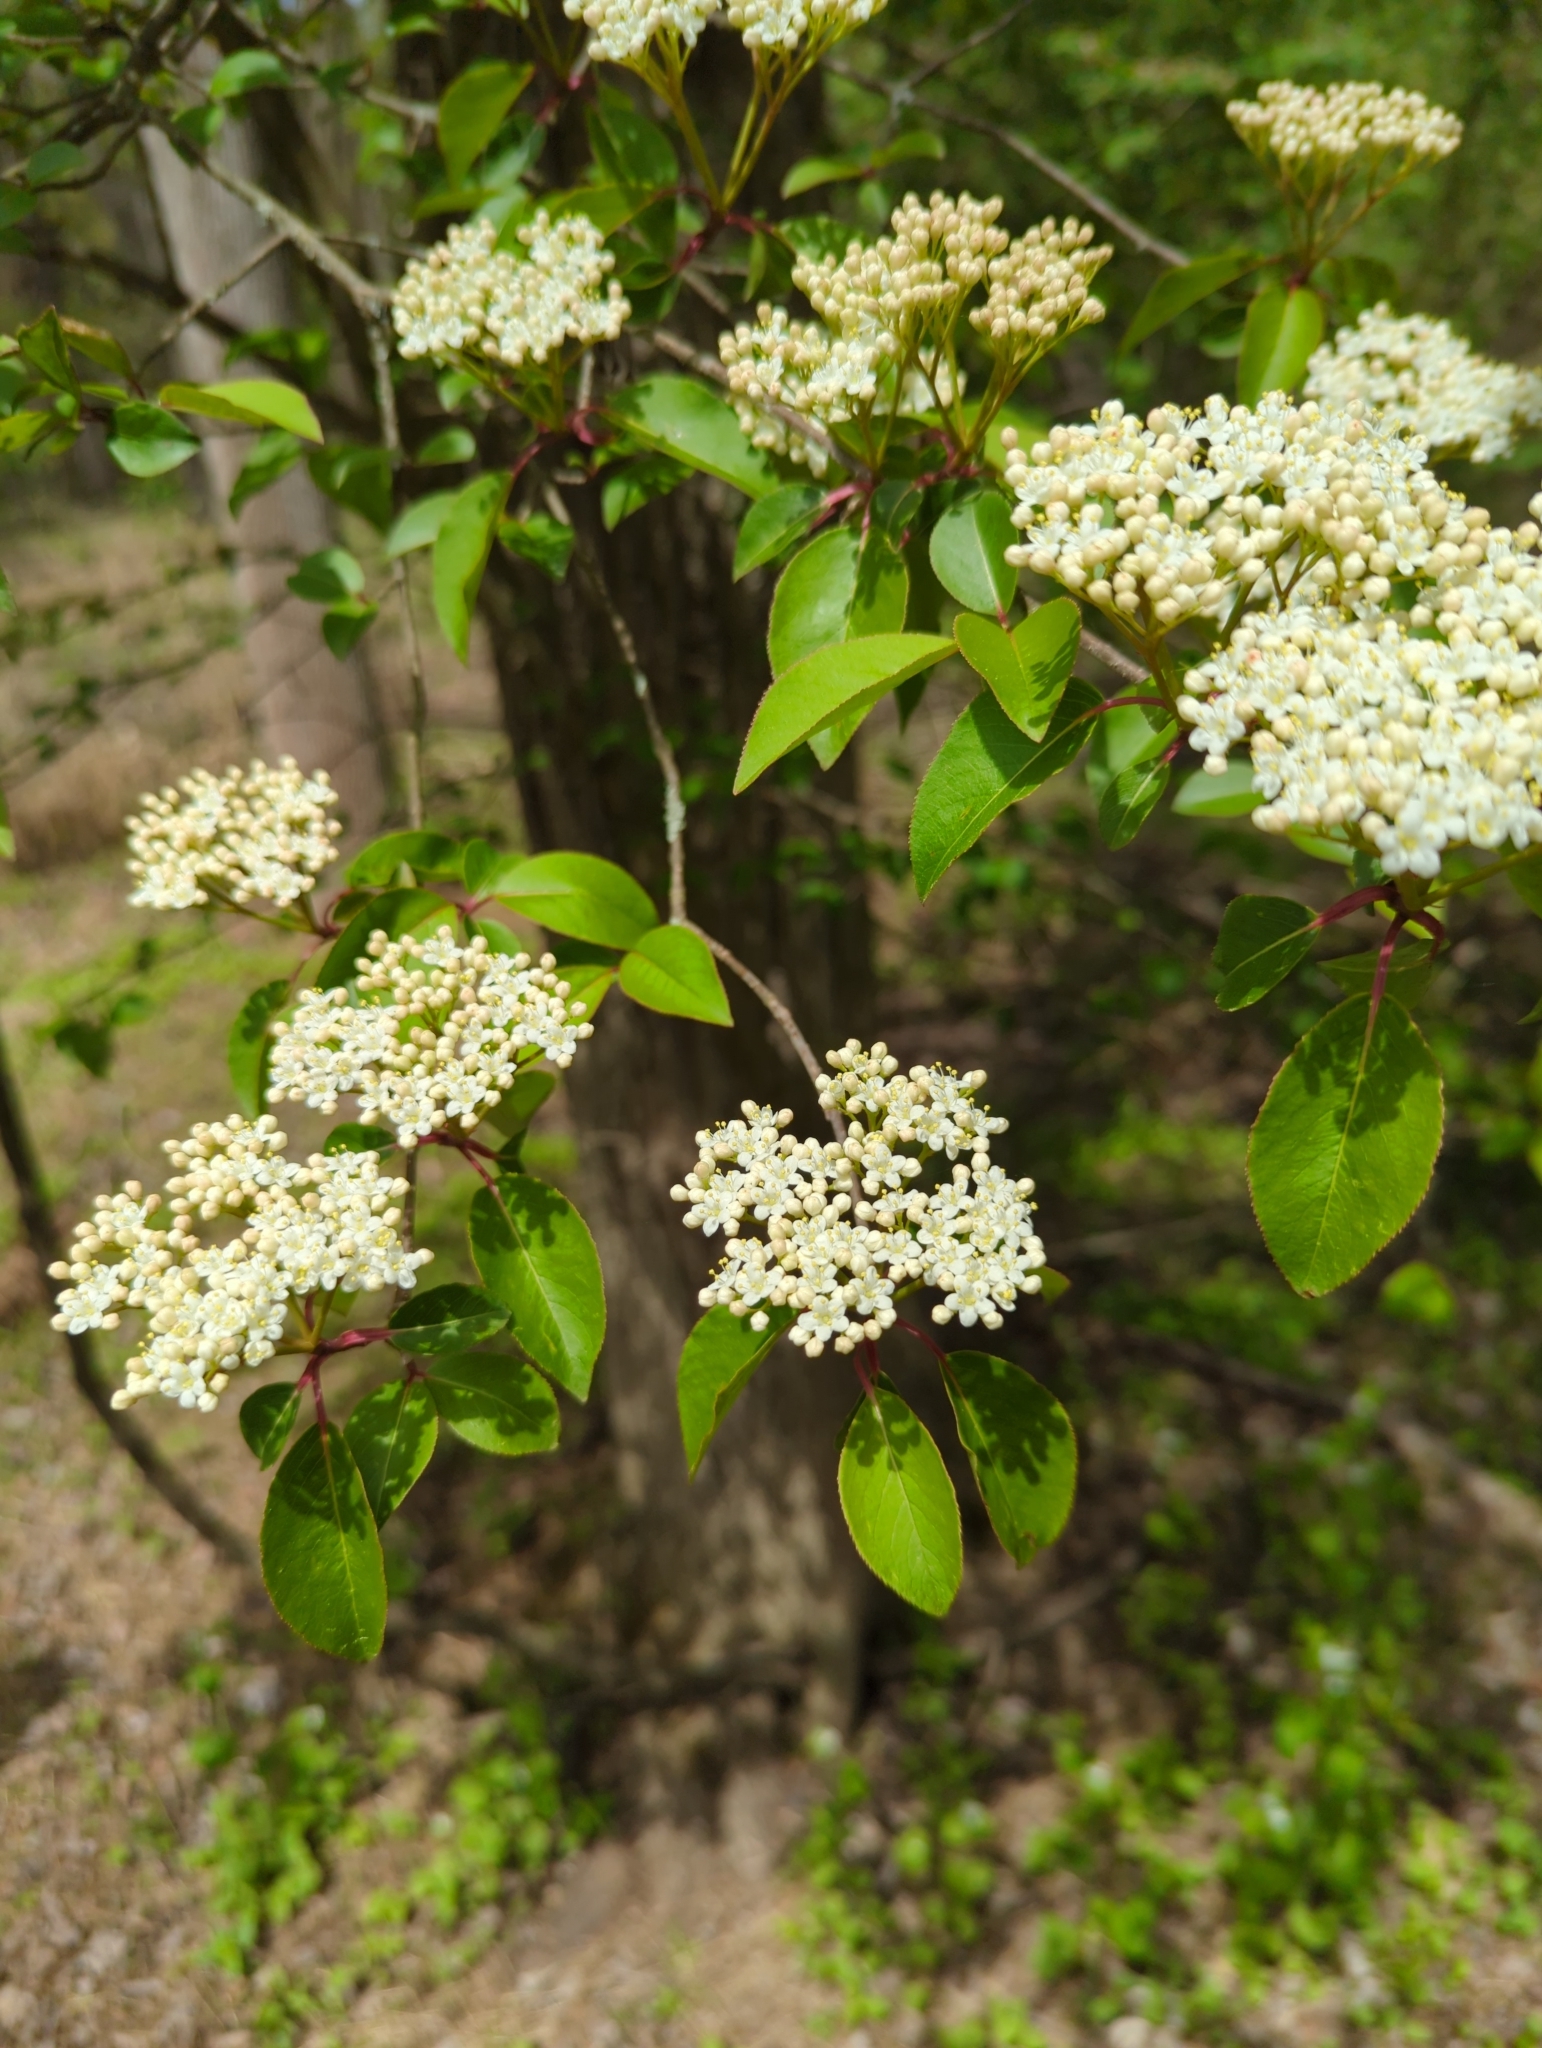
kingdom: Plantae
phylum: Tracheophyta
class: Magnoliopsida
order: Dipsacales
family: Viburnaceae
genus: Viburnum
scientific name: Viburnum prunifolium
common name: Black haw
